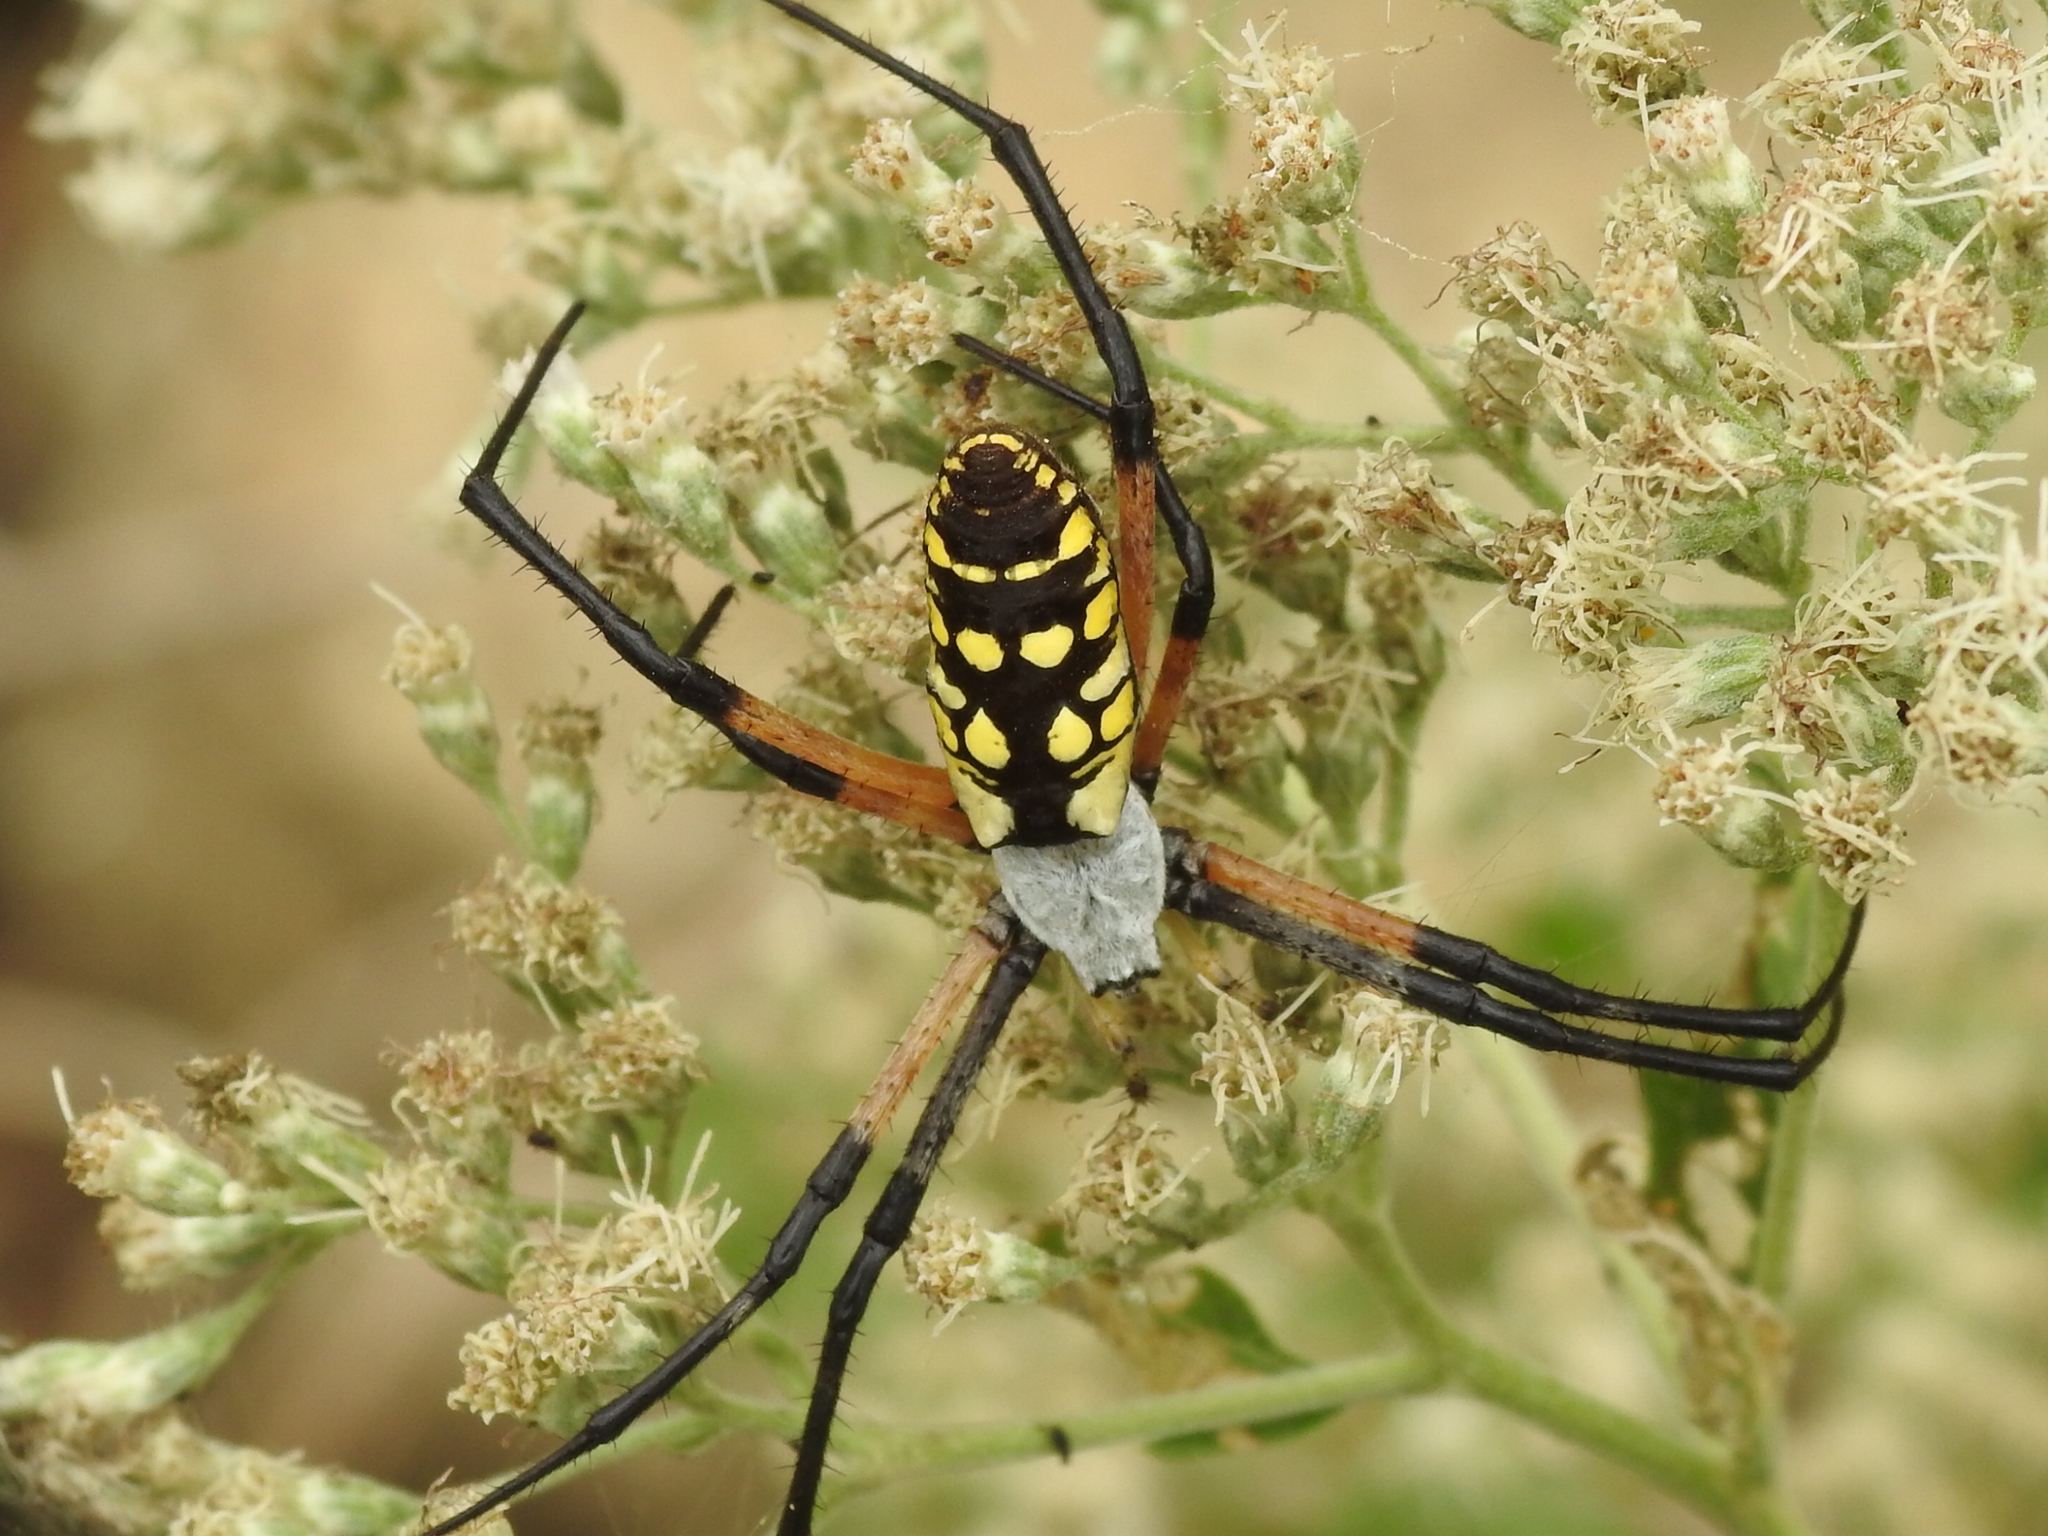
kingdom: Animalia
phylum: Arthropoda
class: Arachnida
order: Araneae
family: Araneidae
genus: Argiope
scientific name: Argiope aurantia
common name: Orb weavers
